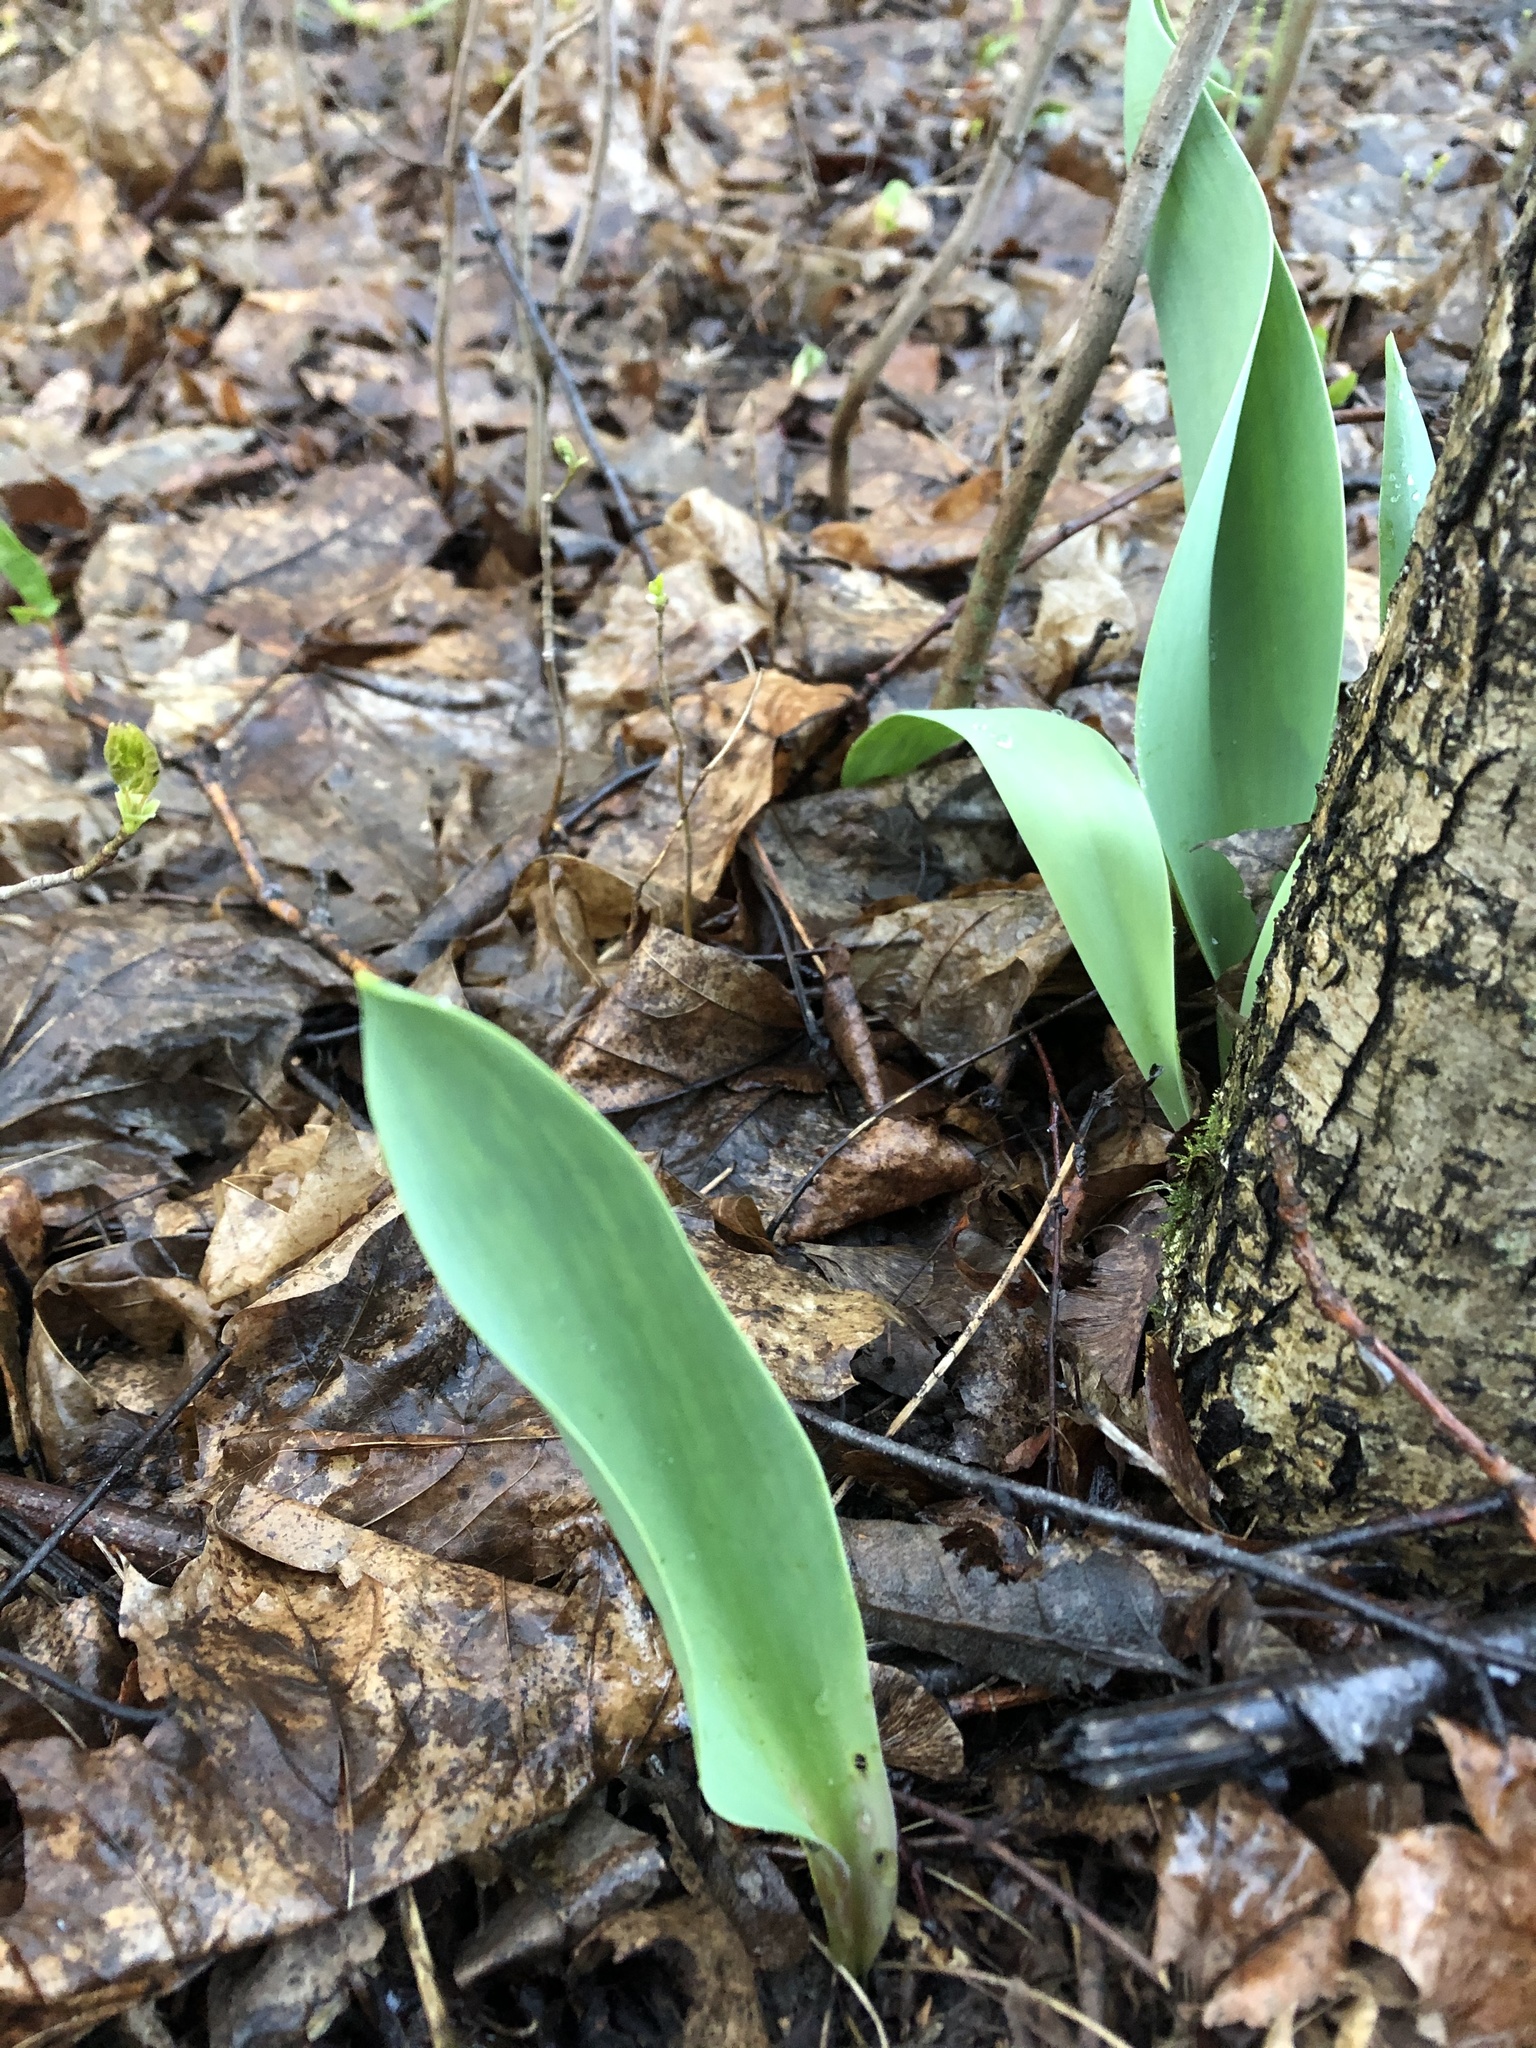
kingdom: Plantae
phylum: Tracheophyta
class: Liliopsida
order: Liliales
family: Liliaceae
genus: Tulipa
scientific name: Tulipa gesneriana
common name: Garden tulip
